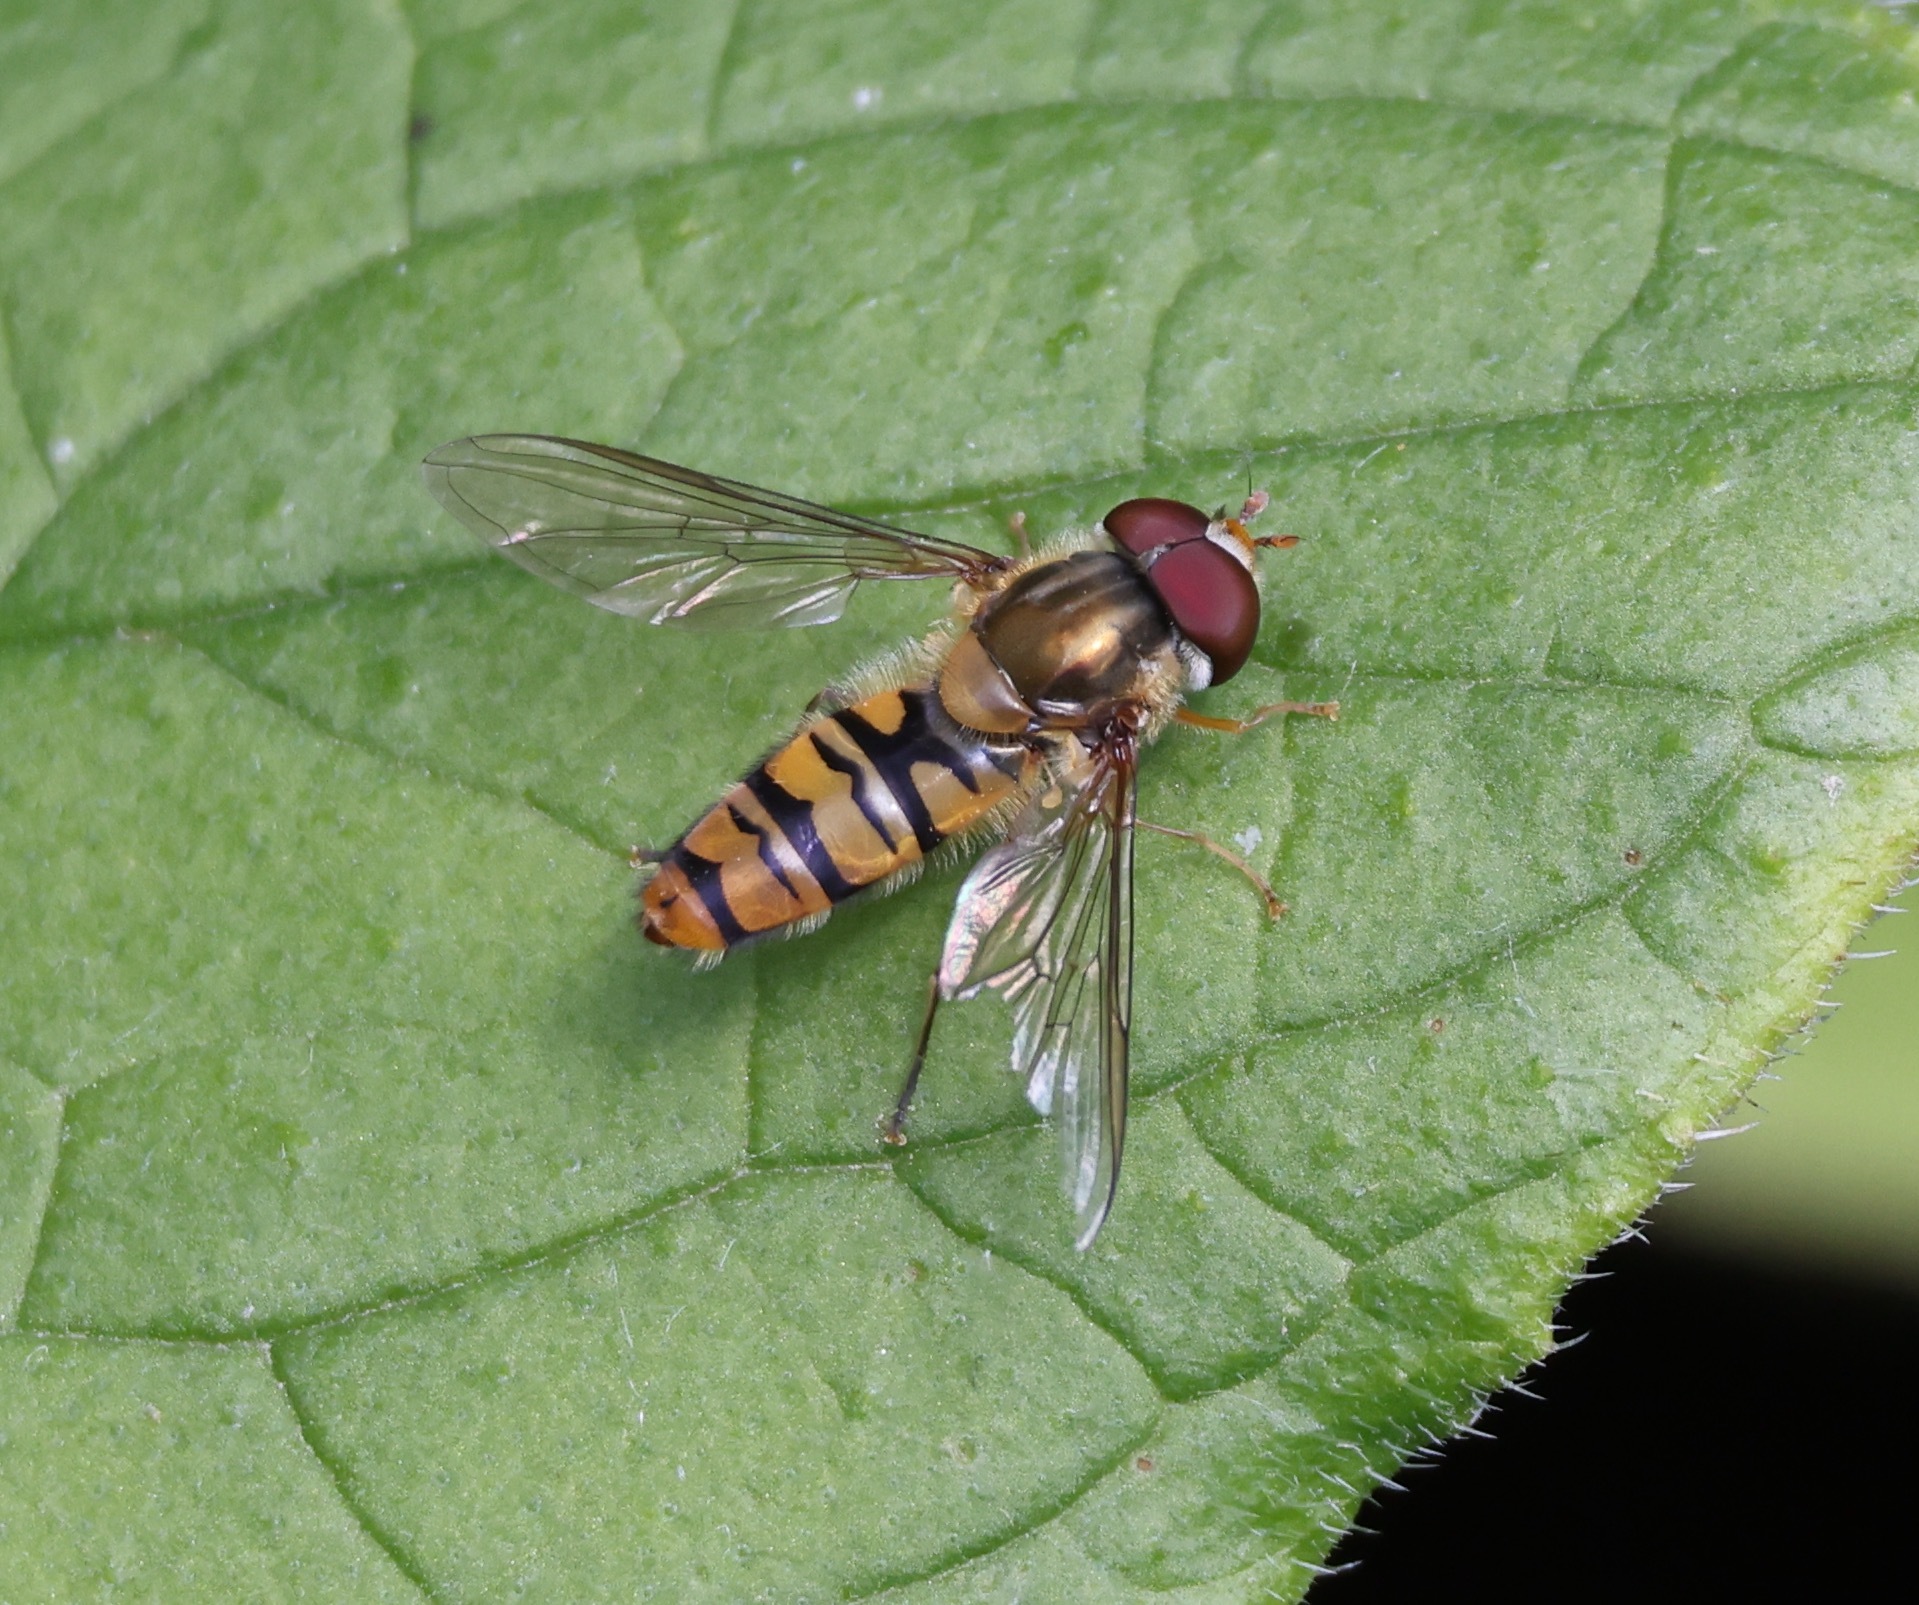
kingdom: Animalia
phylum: Arthropoda
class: Insecta
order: Diptera
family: Syrphidae
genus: Episyrphus
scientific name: Episyrphus balteatus
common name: Marmalade hoverfly
